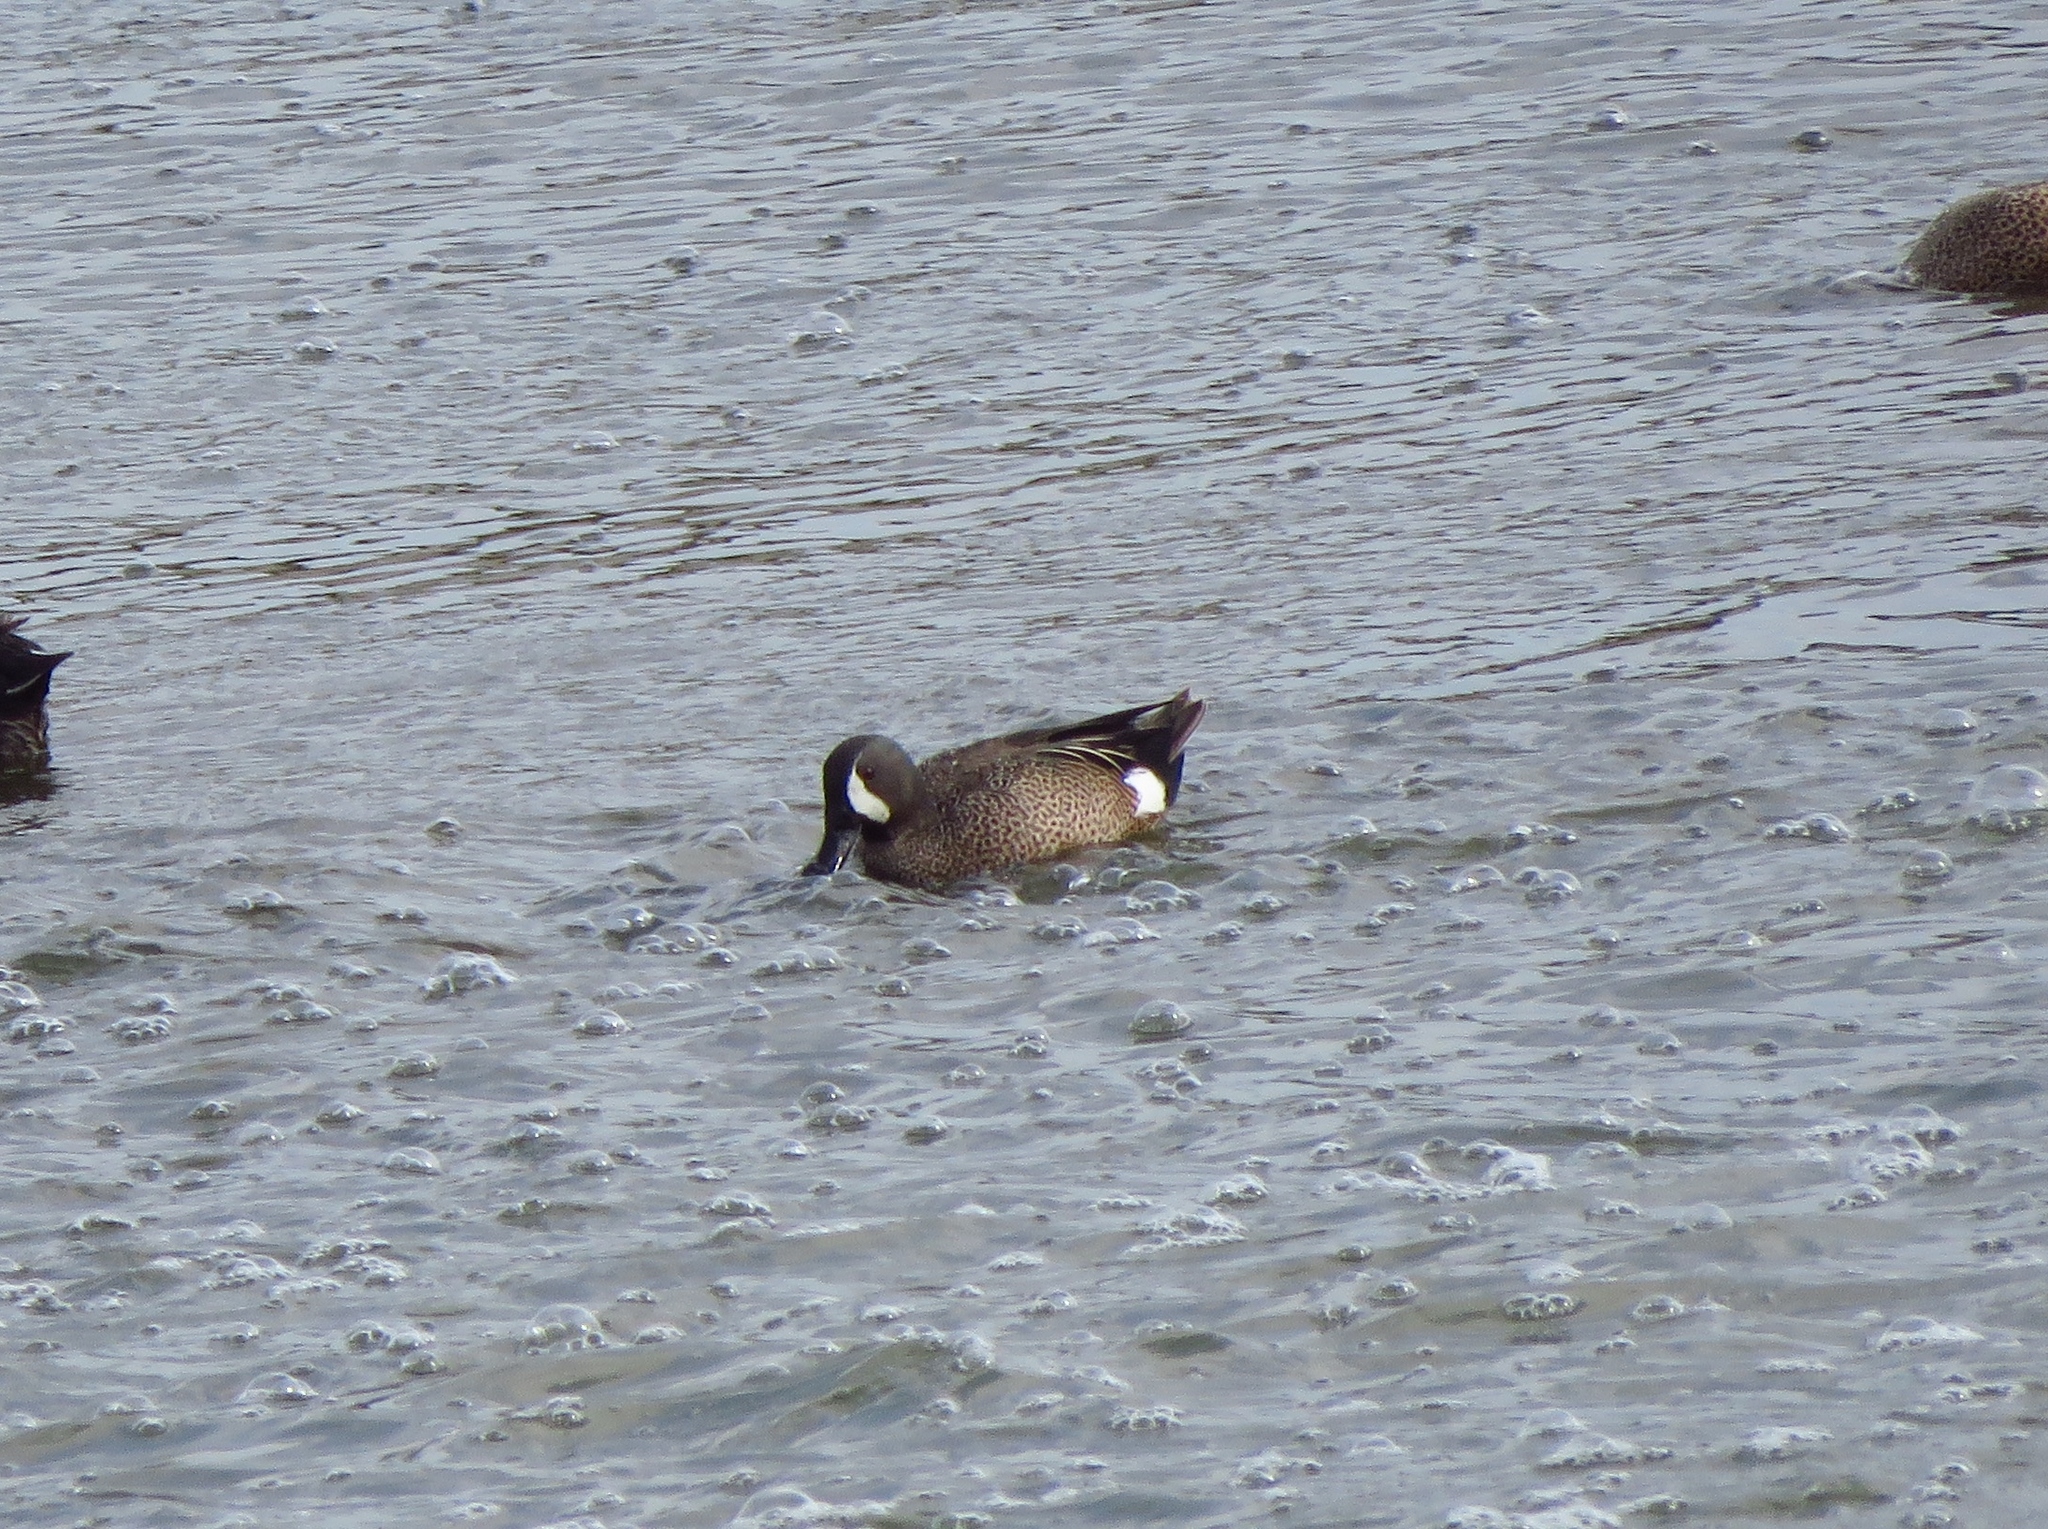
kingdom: Animalia
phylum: Chordata
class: Aves
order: Anseriformes
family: Anatidae
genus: Spatula
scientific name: Spatula discors
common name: Blue-winged teal
